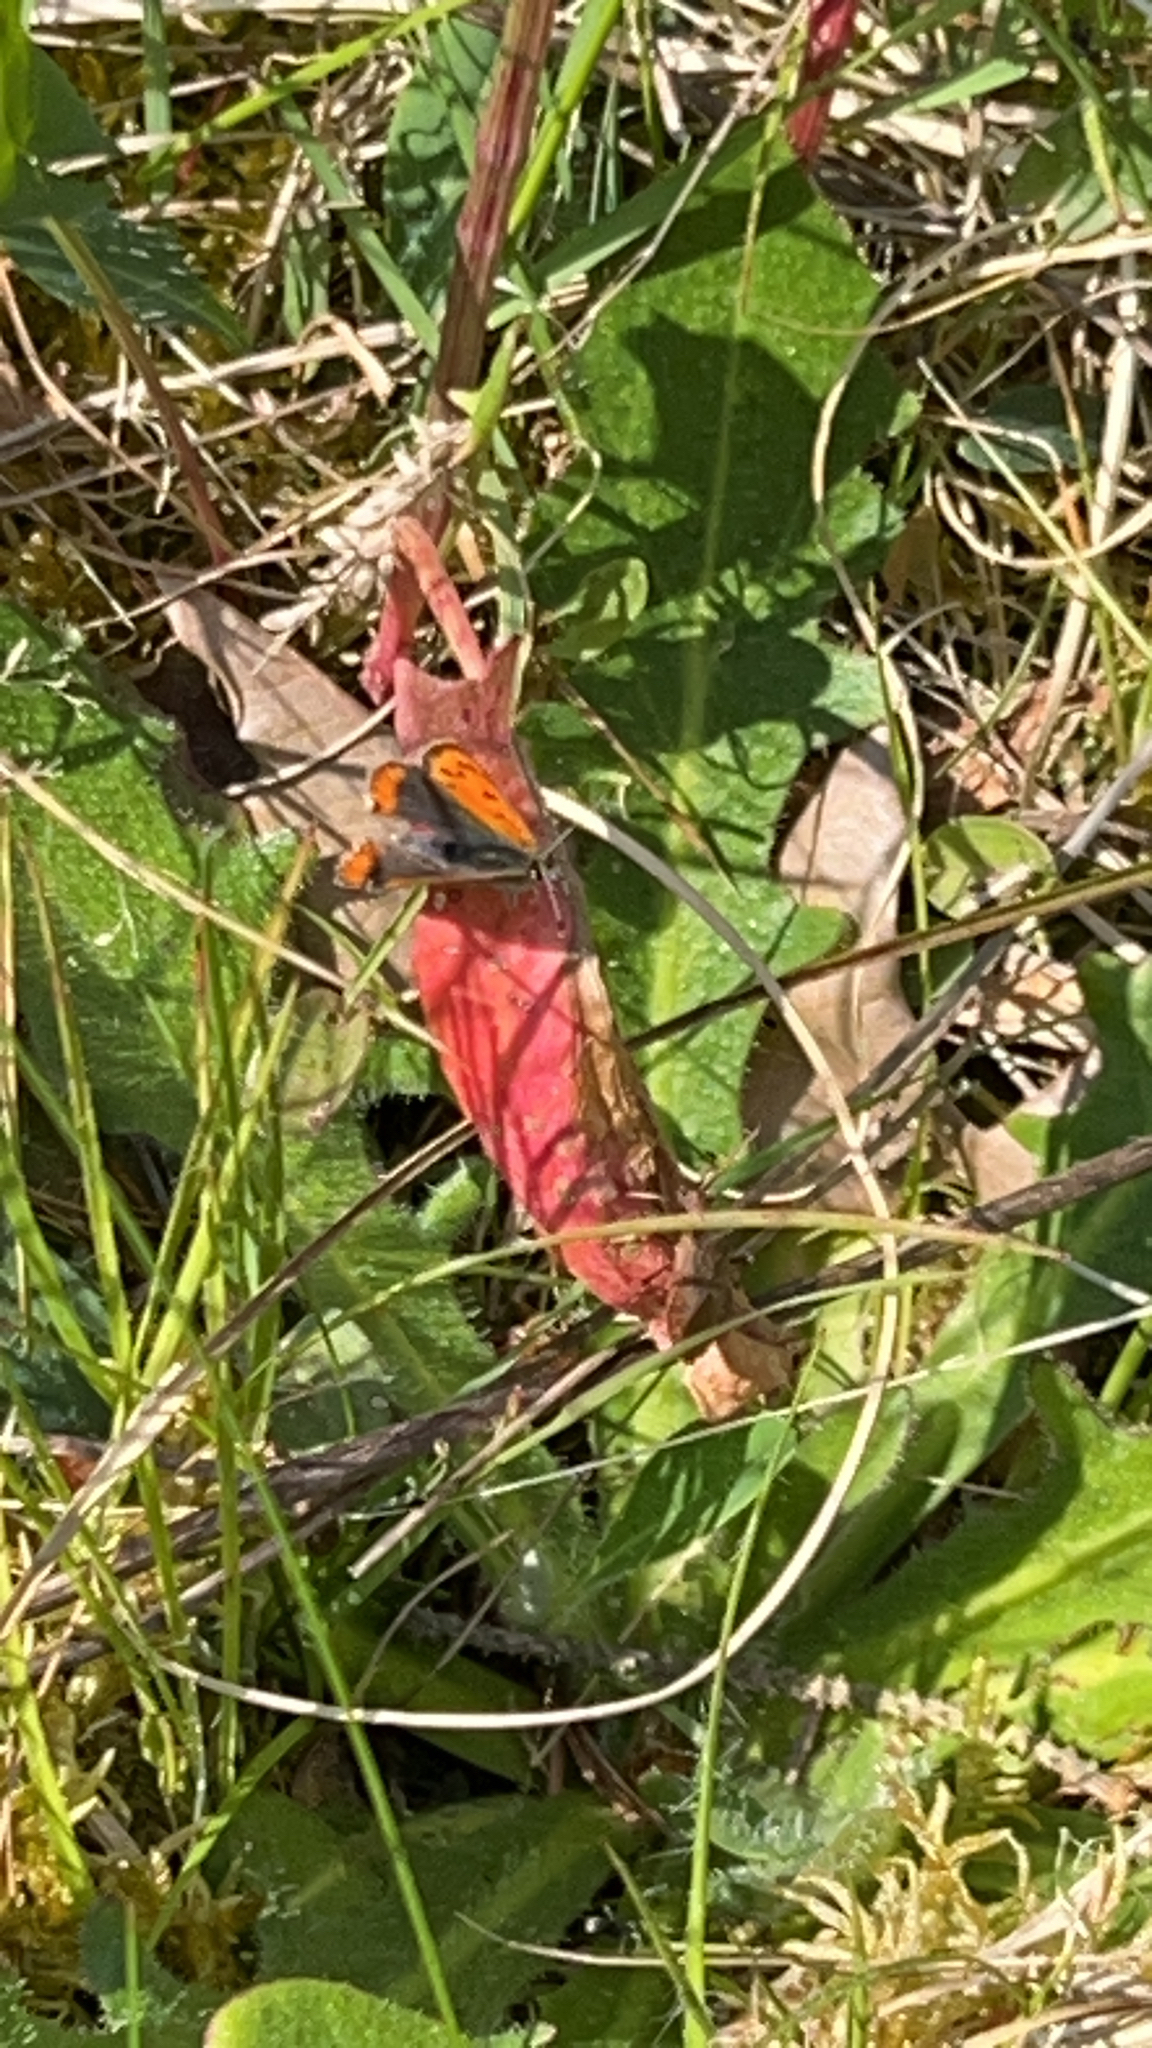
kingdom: Animalia
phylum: Arthropoda
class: Insecta
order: Lepidoptera
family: Lycaenidae
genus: Lycaena
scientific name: Lycaena phlaeas
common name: Small copper
